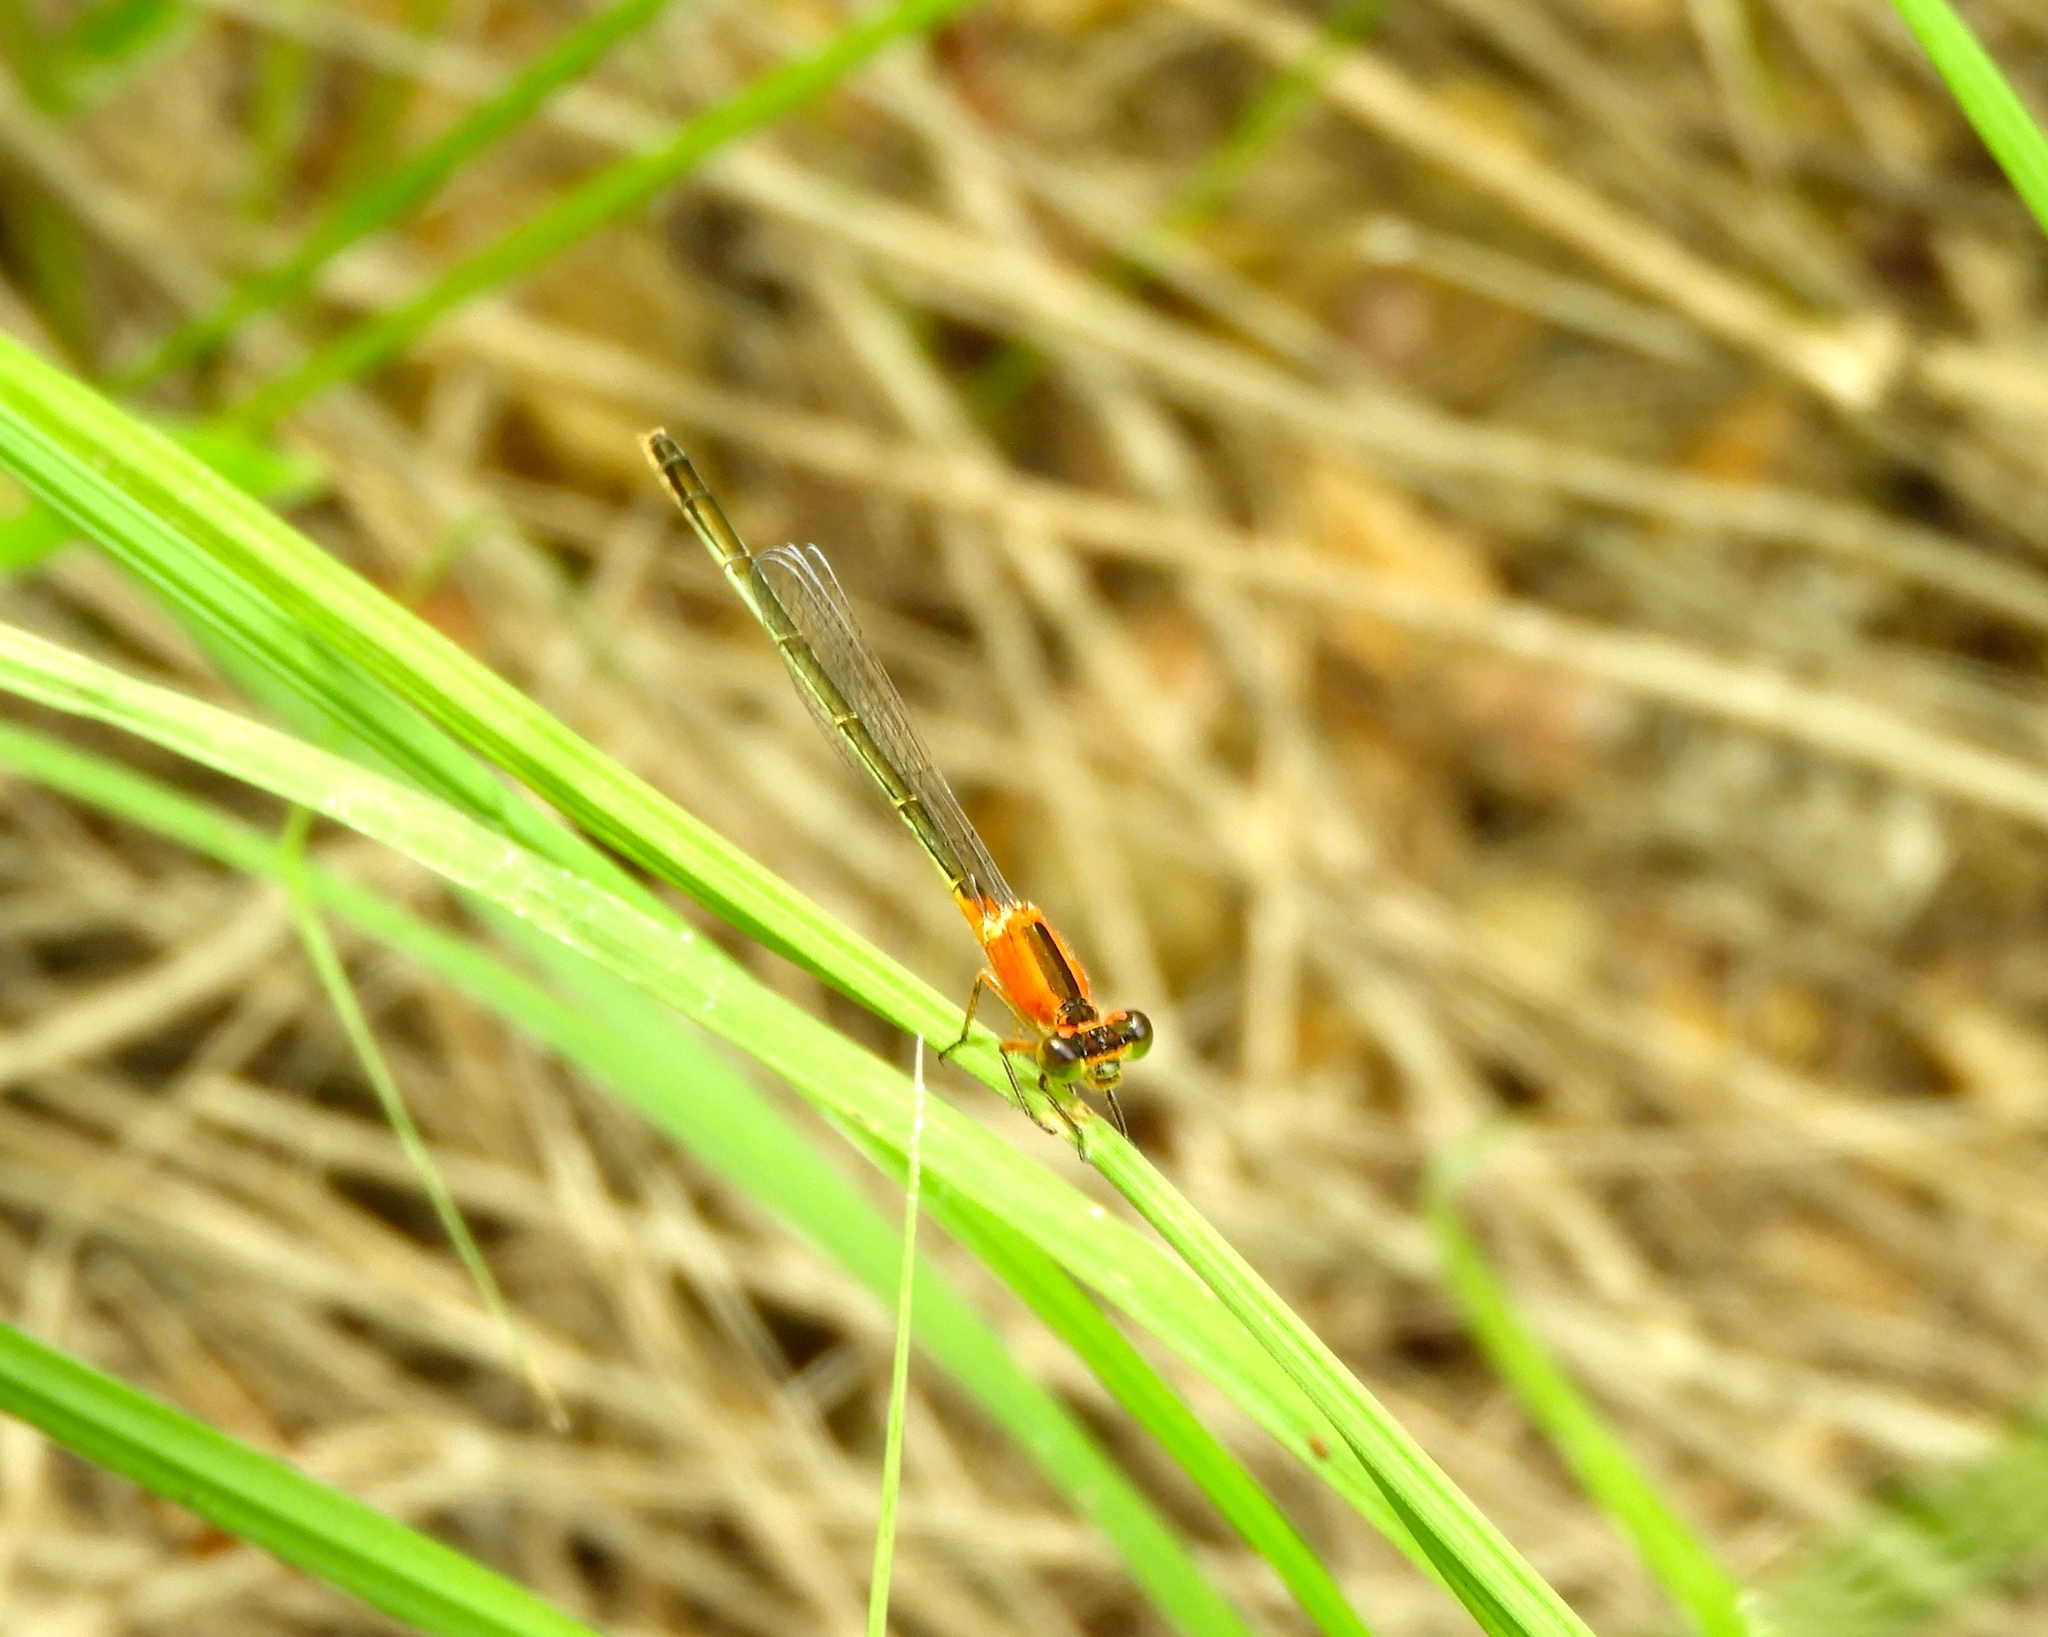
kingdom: Animalia
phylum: Arthropoda
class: Insecta
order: Odonata
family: Coenagrionidae
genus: Ischnura
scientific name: Ischnura ramburii
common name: Rambur's forktail
